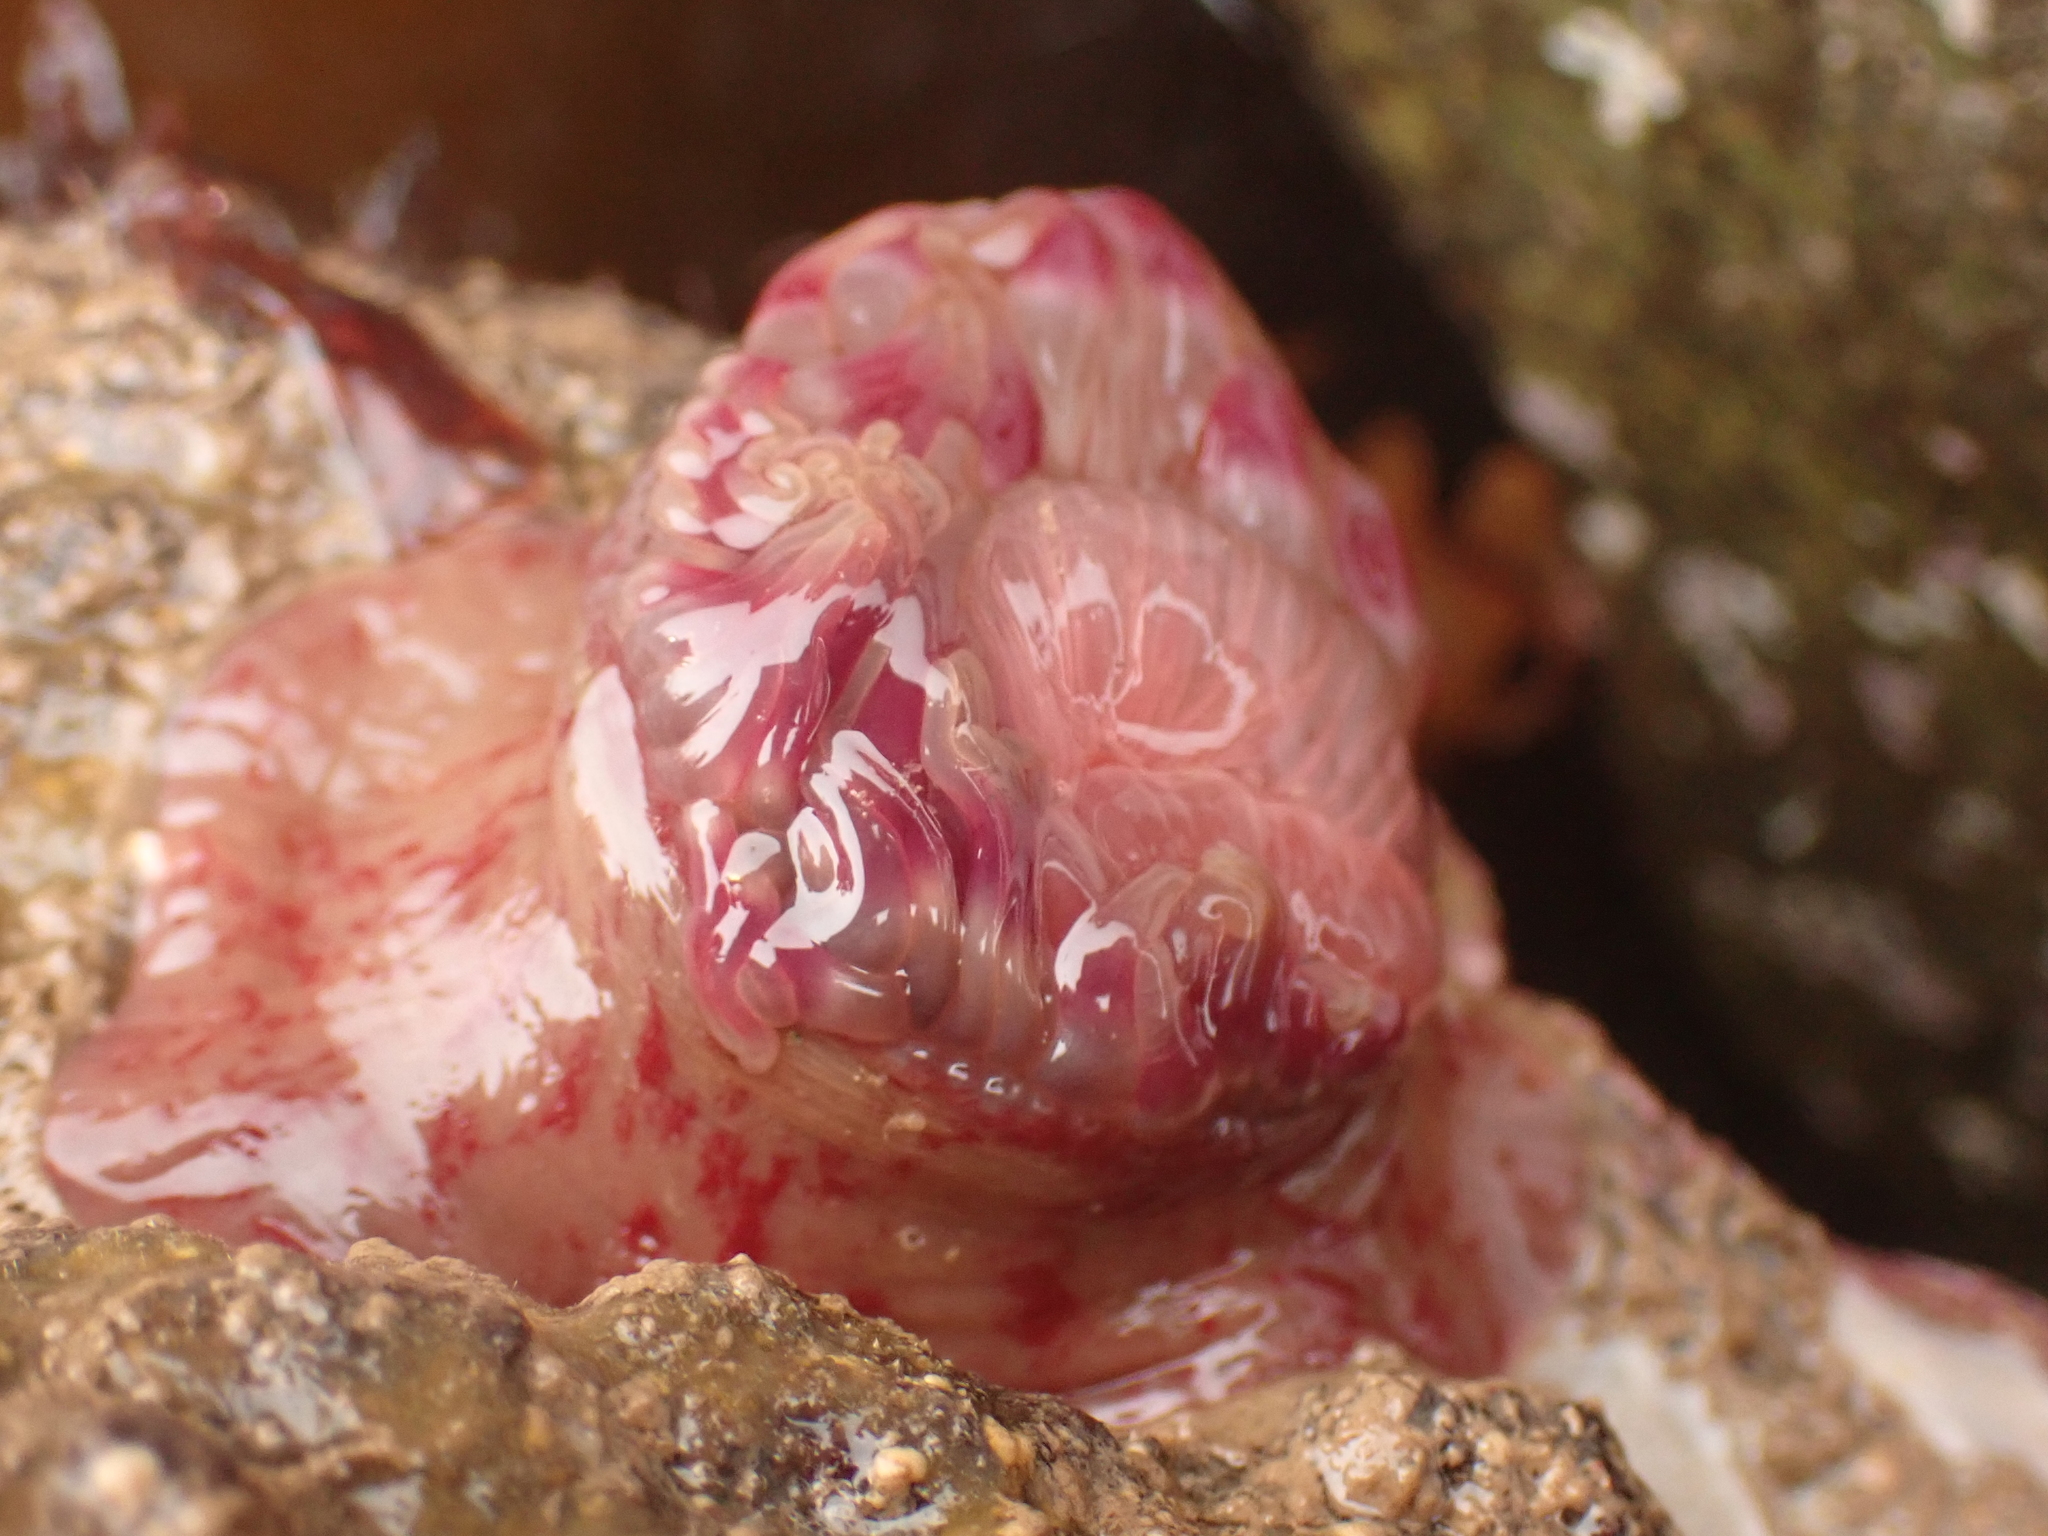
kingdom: Animalia
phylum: Cnidaria
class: Anthozoa
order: Actiniaria
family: Actiniidae
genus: Urticina
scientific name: Urticina crassicornis
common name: Mottled anemone
